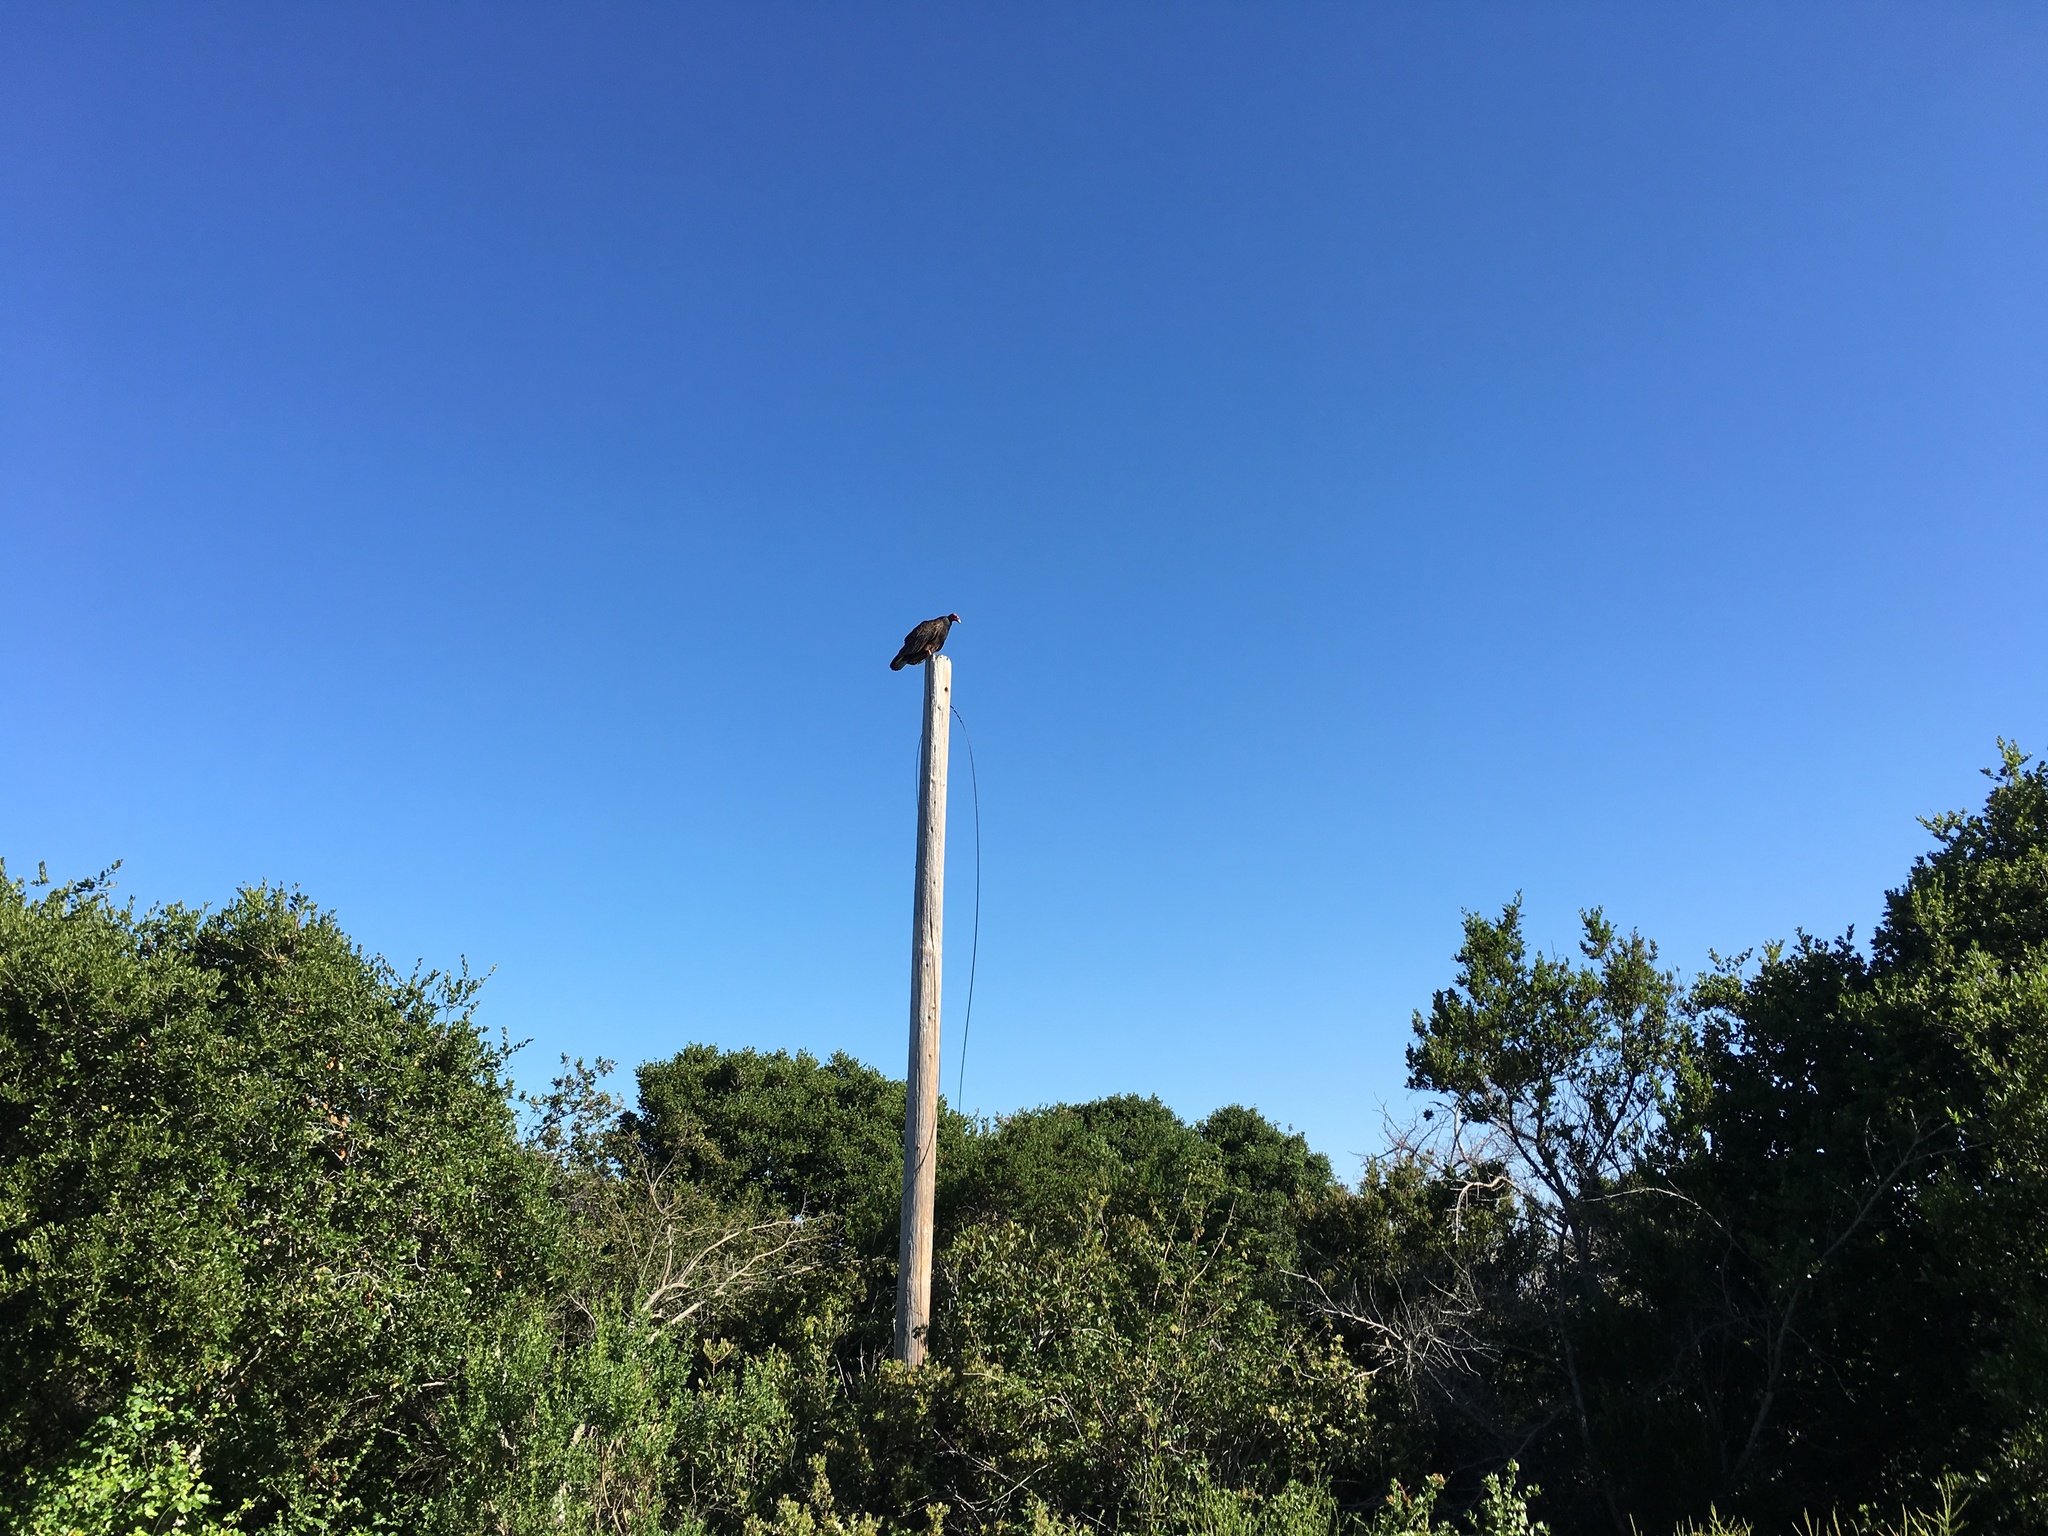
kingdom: Animalia
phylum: Chordata
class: Aves
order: Accipitriformes
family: Cathartidae
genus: Cathartes
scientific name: Cathartes aura
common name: Turkey vulture
